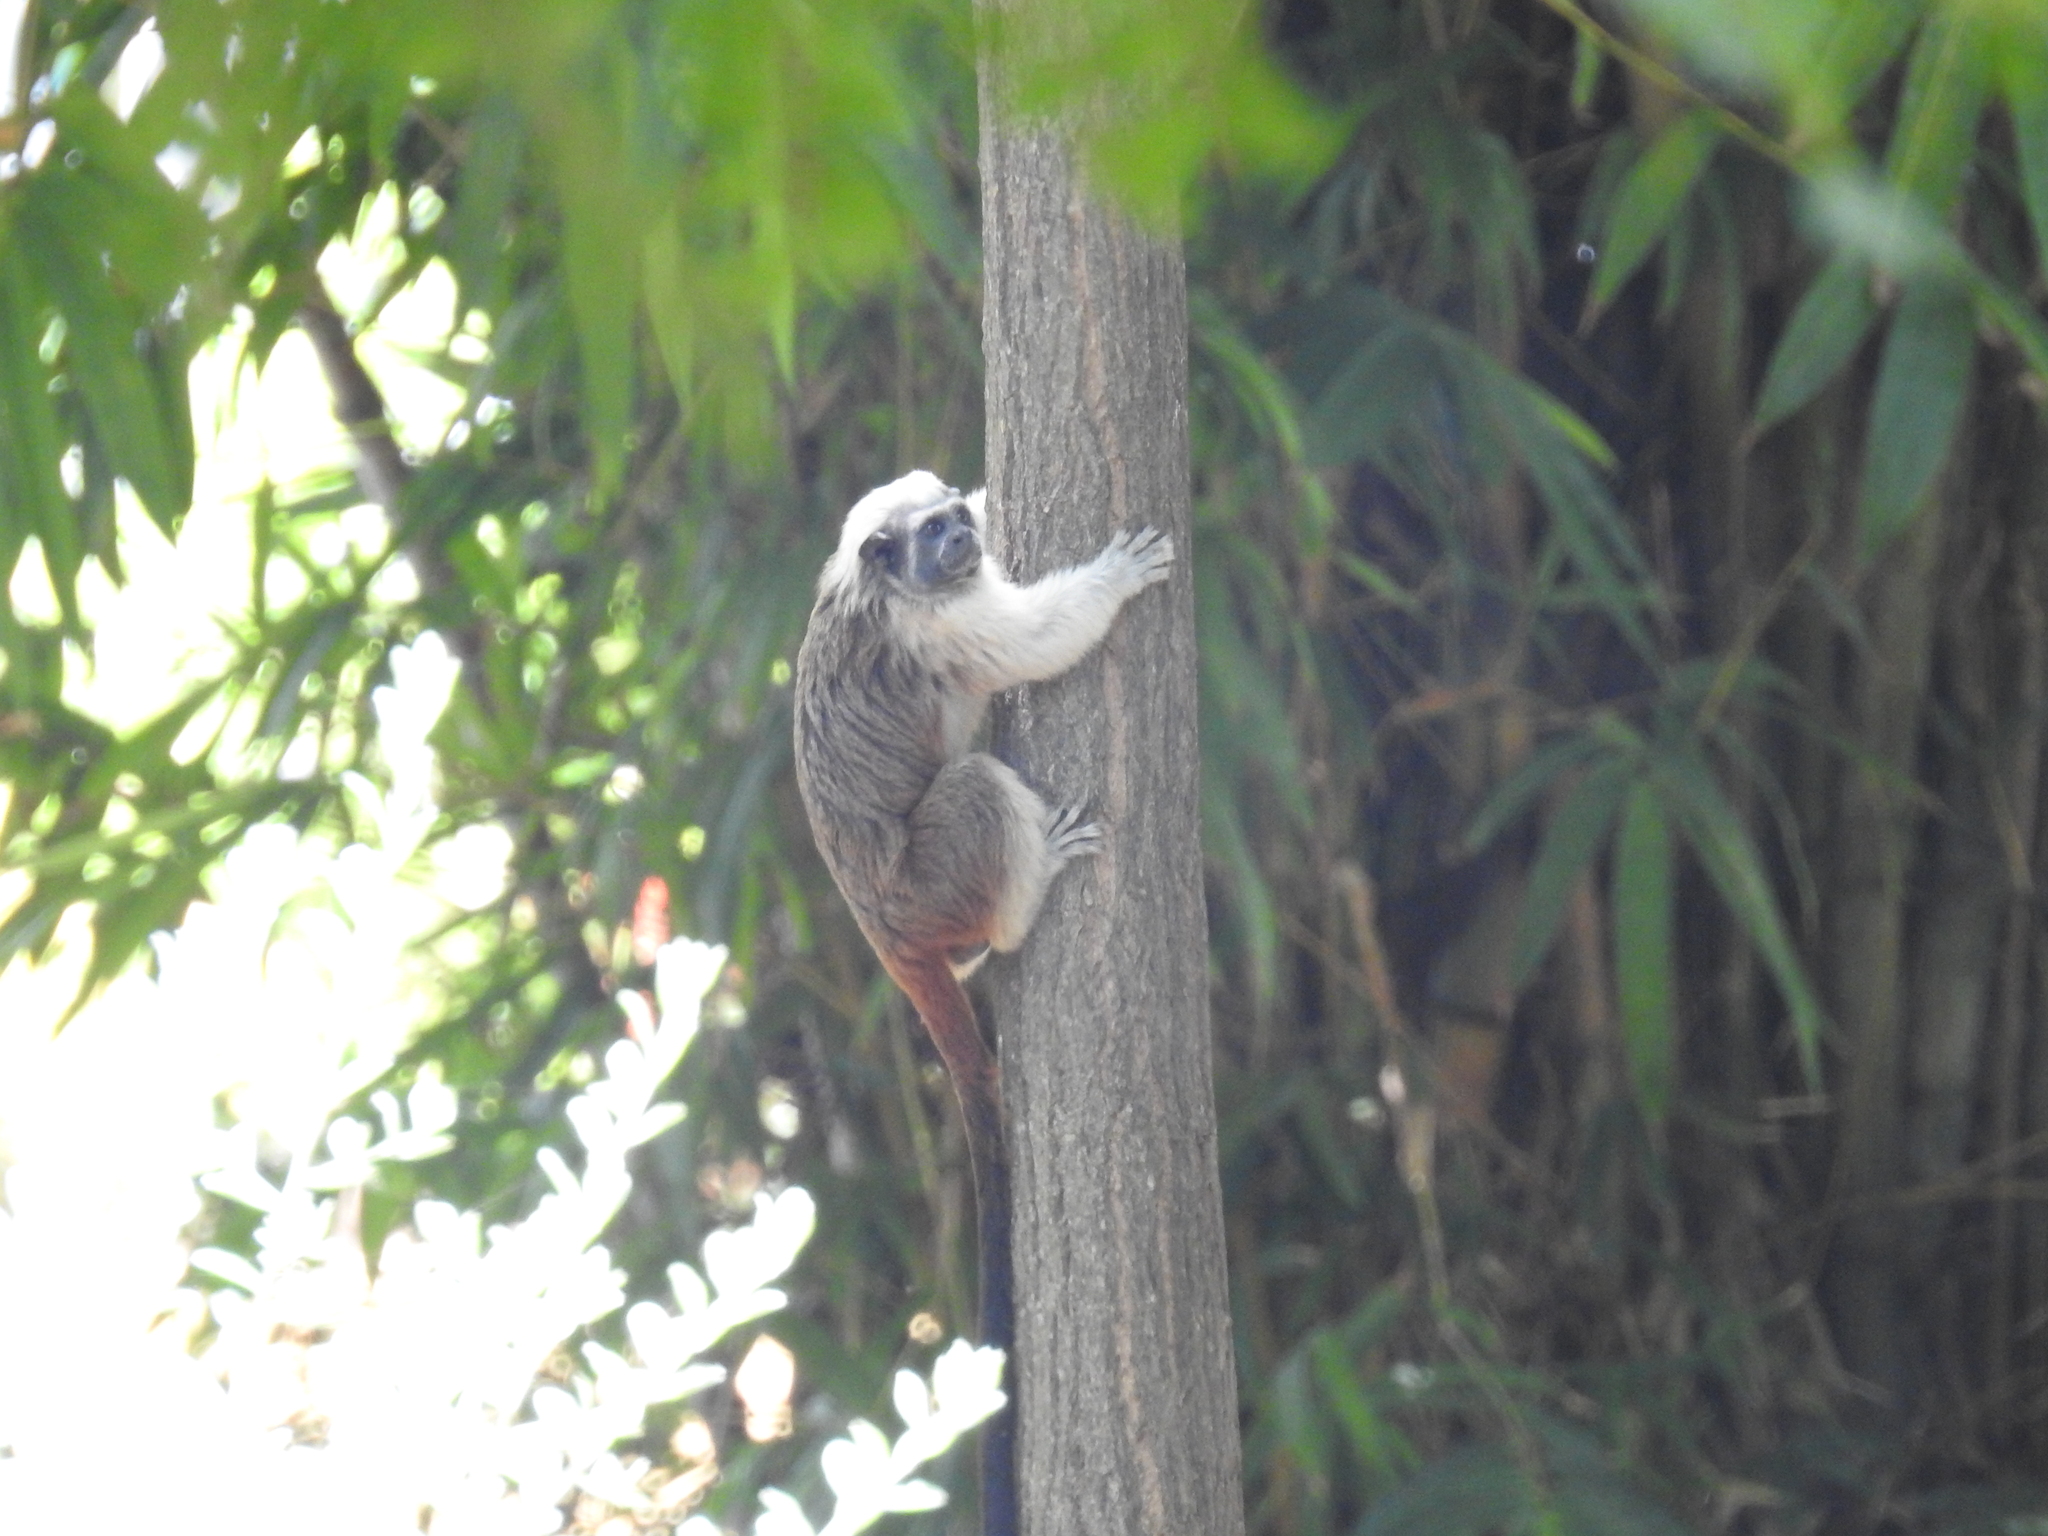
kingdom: Animalia
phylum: Chordata
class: Mammalia
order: Primates
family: Callitrichidae
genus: Saguinus
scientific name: Saguinus oedipus
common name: Cottontop tamarin
